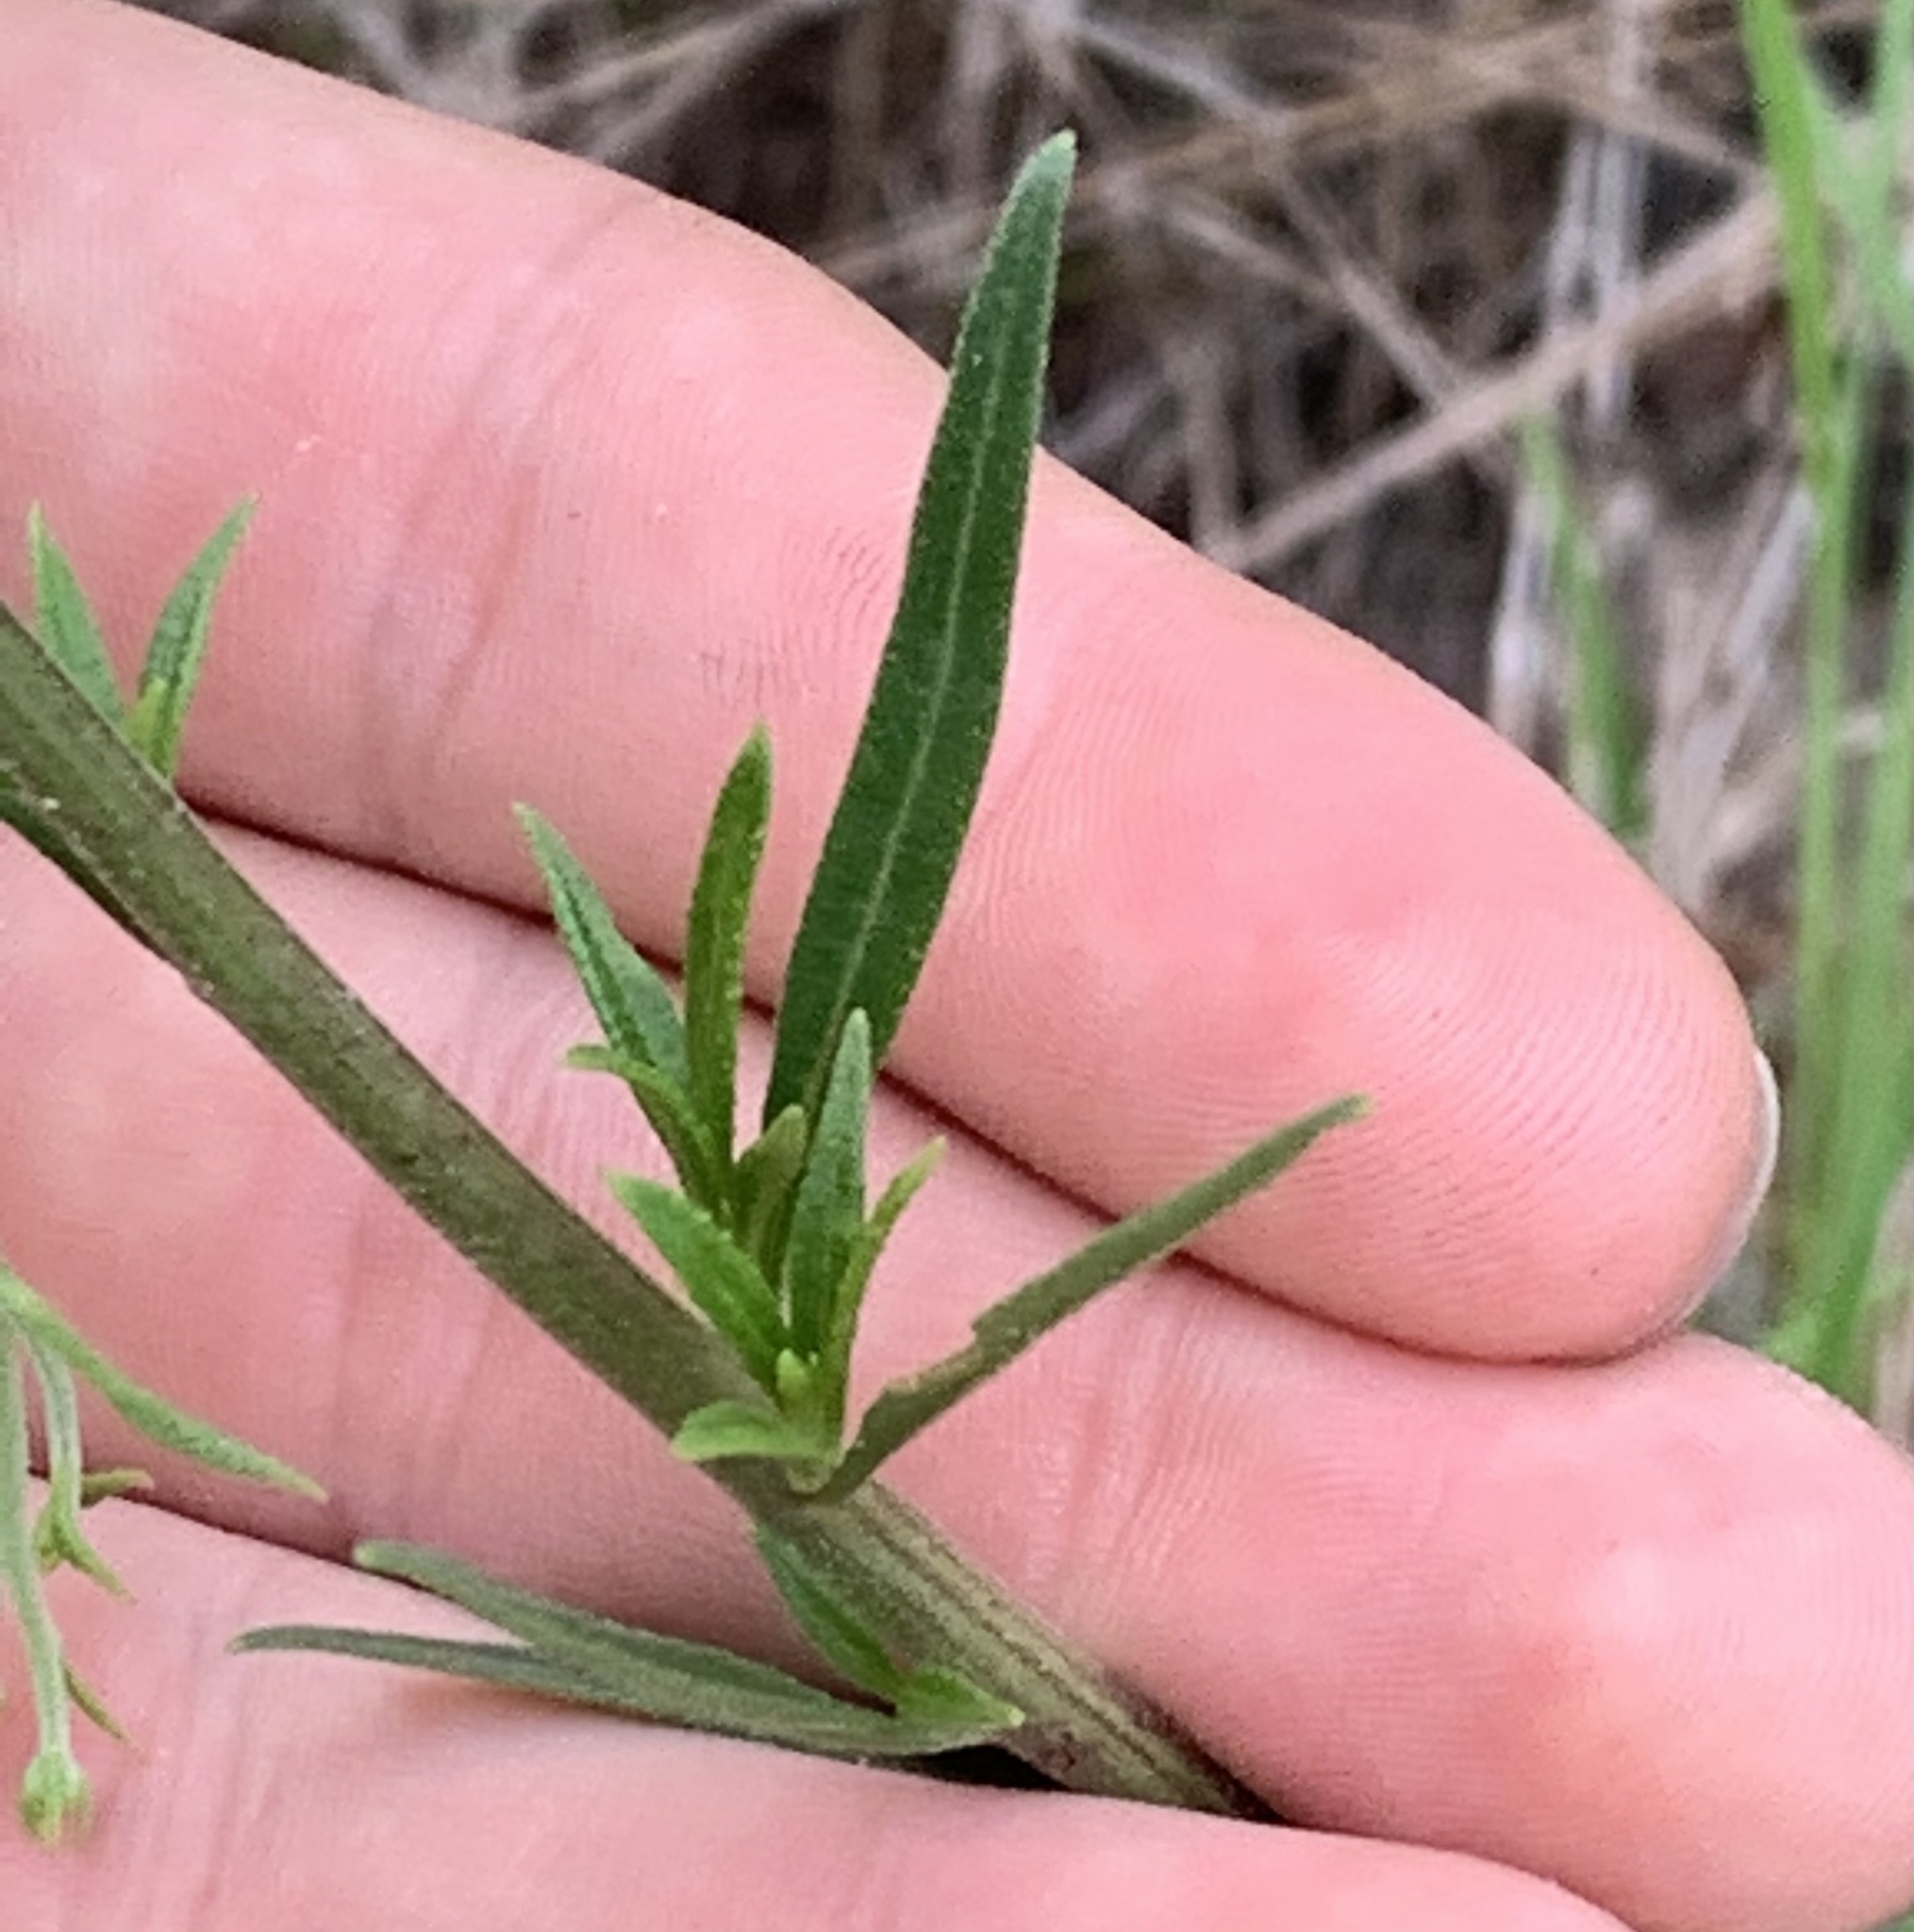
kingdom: Plantae
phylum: Tracheophyta
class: Magnoliopsida
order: Asterales
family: Asteraceae
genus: Palafoxia
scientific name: Palafoxia integrifolia
